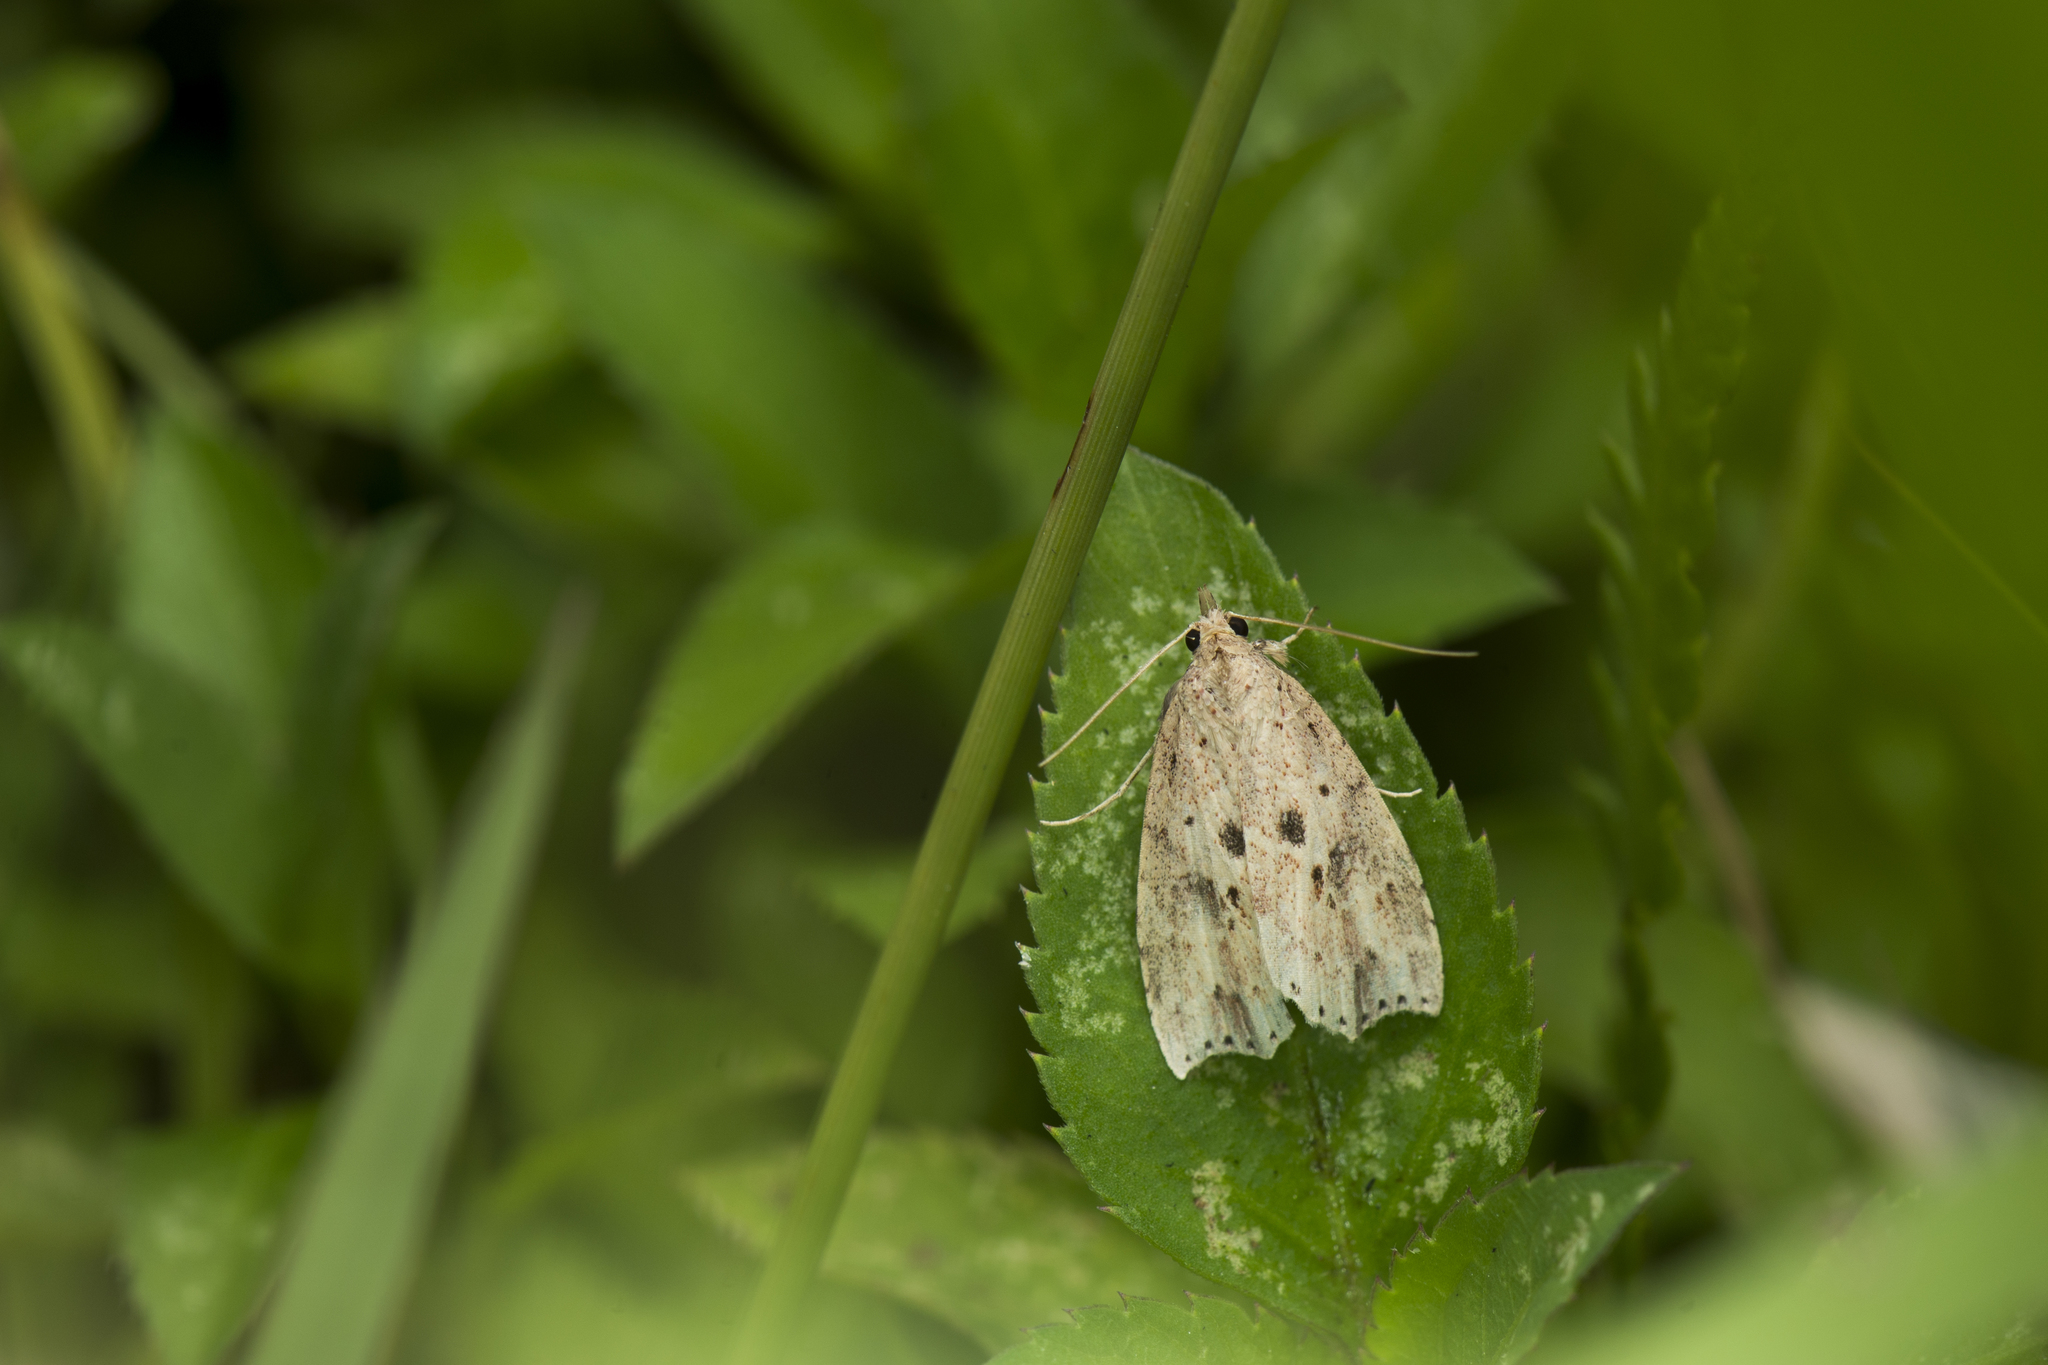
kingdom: Animalia
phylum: Arthropoda
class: Insecta
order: Lepidoptera
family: Erebidae
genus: Olulis
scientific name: Olulis puncticinctalis
